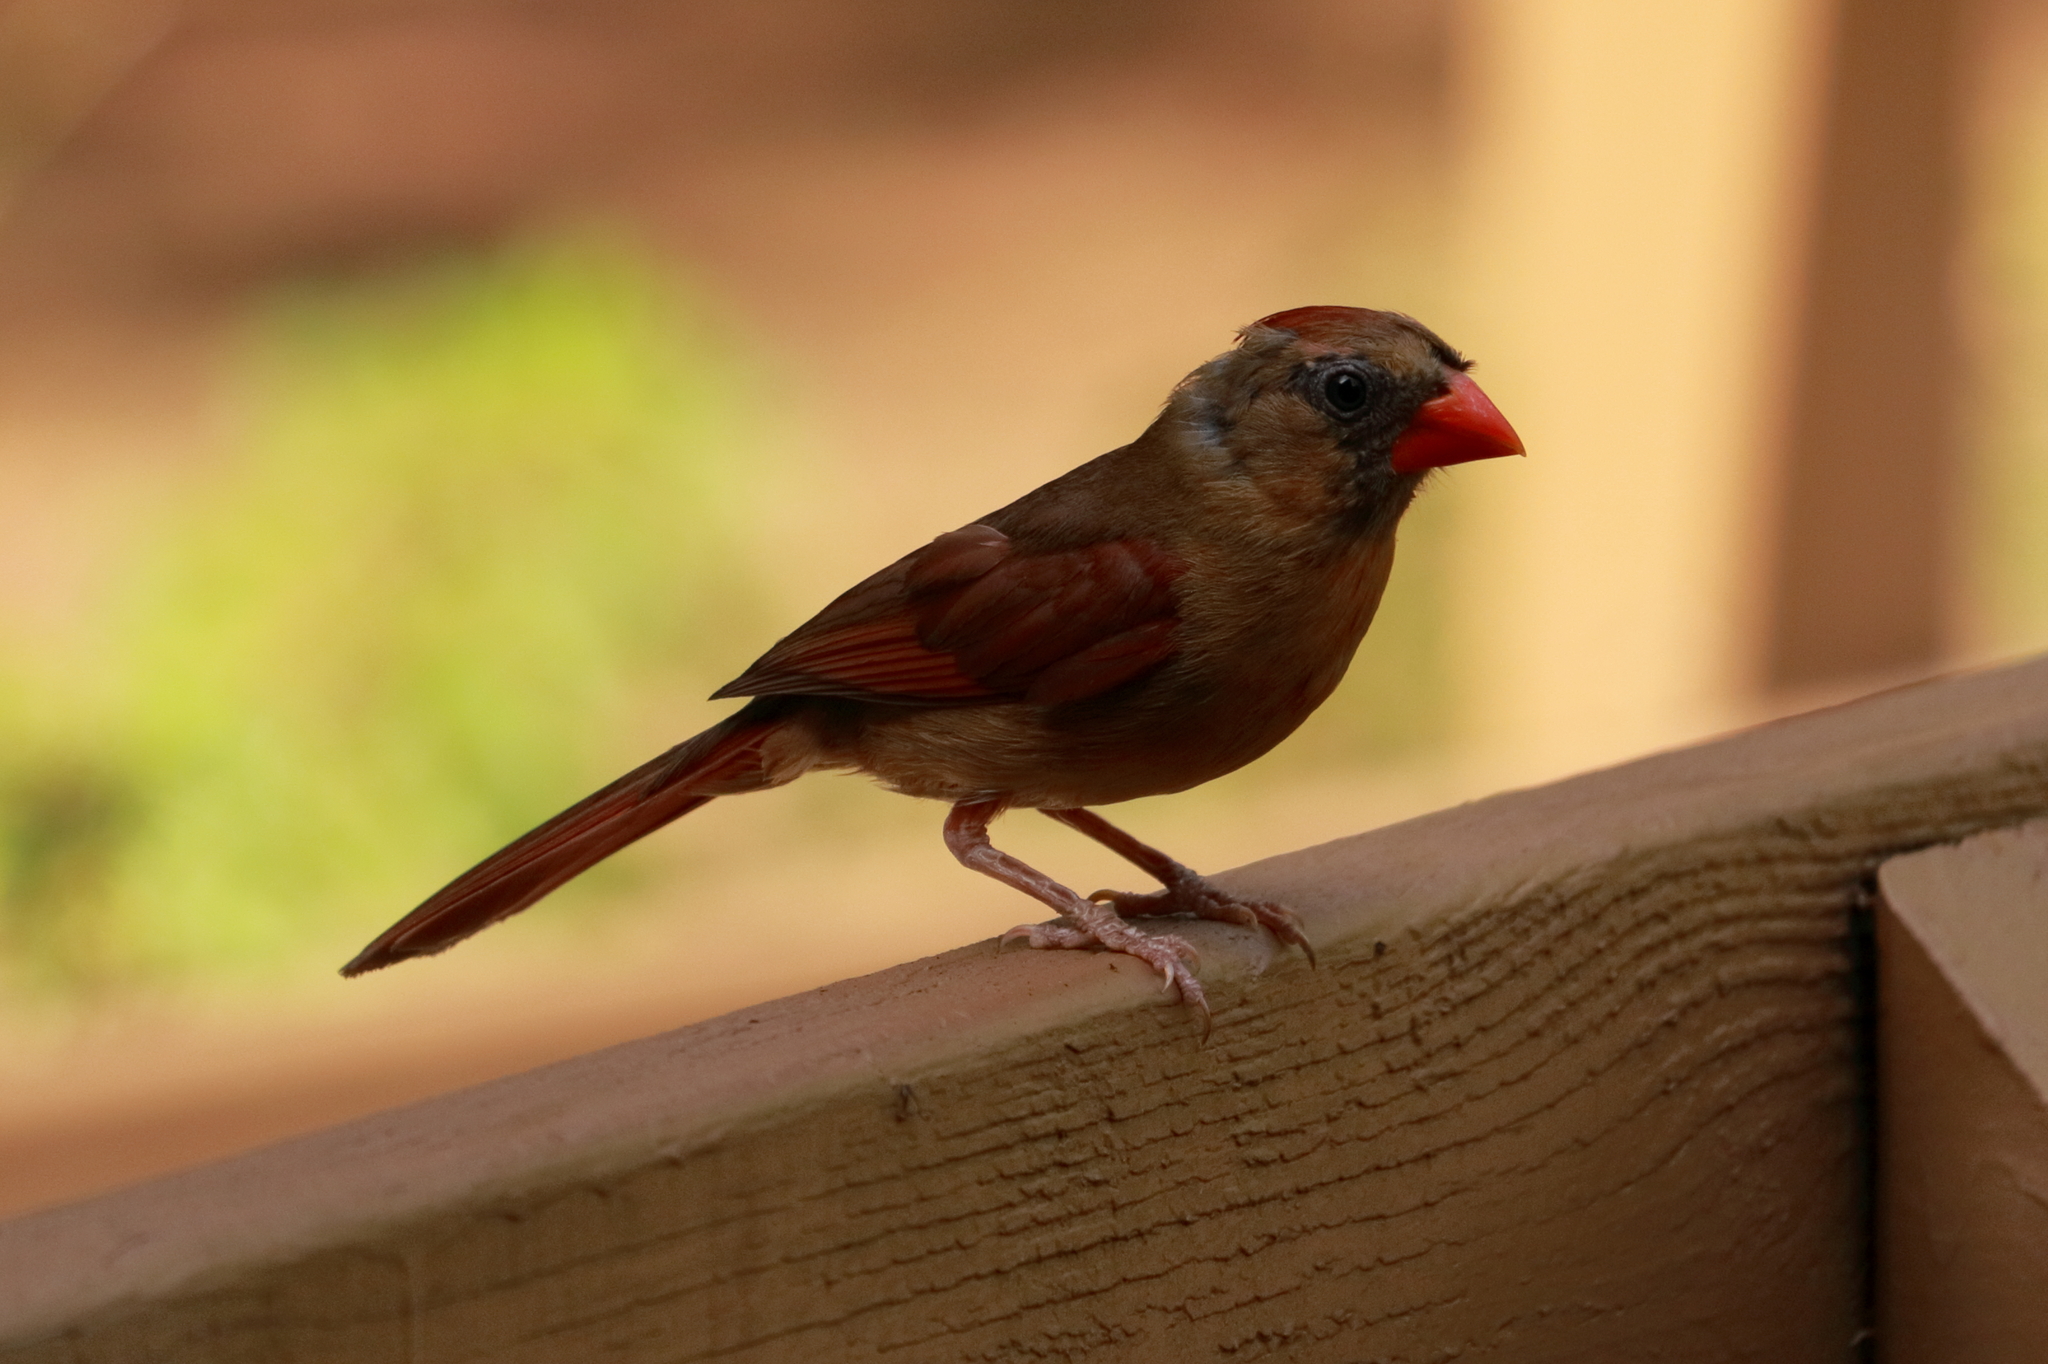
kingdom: Animalia
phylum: Chordata
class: Aves
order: Passeriformes
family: Cardinalidae
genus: Cardinalis
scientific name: Cardinalis cardinalis
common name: Northern cardinal
